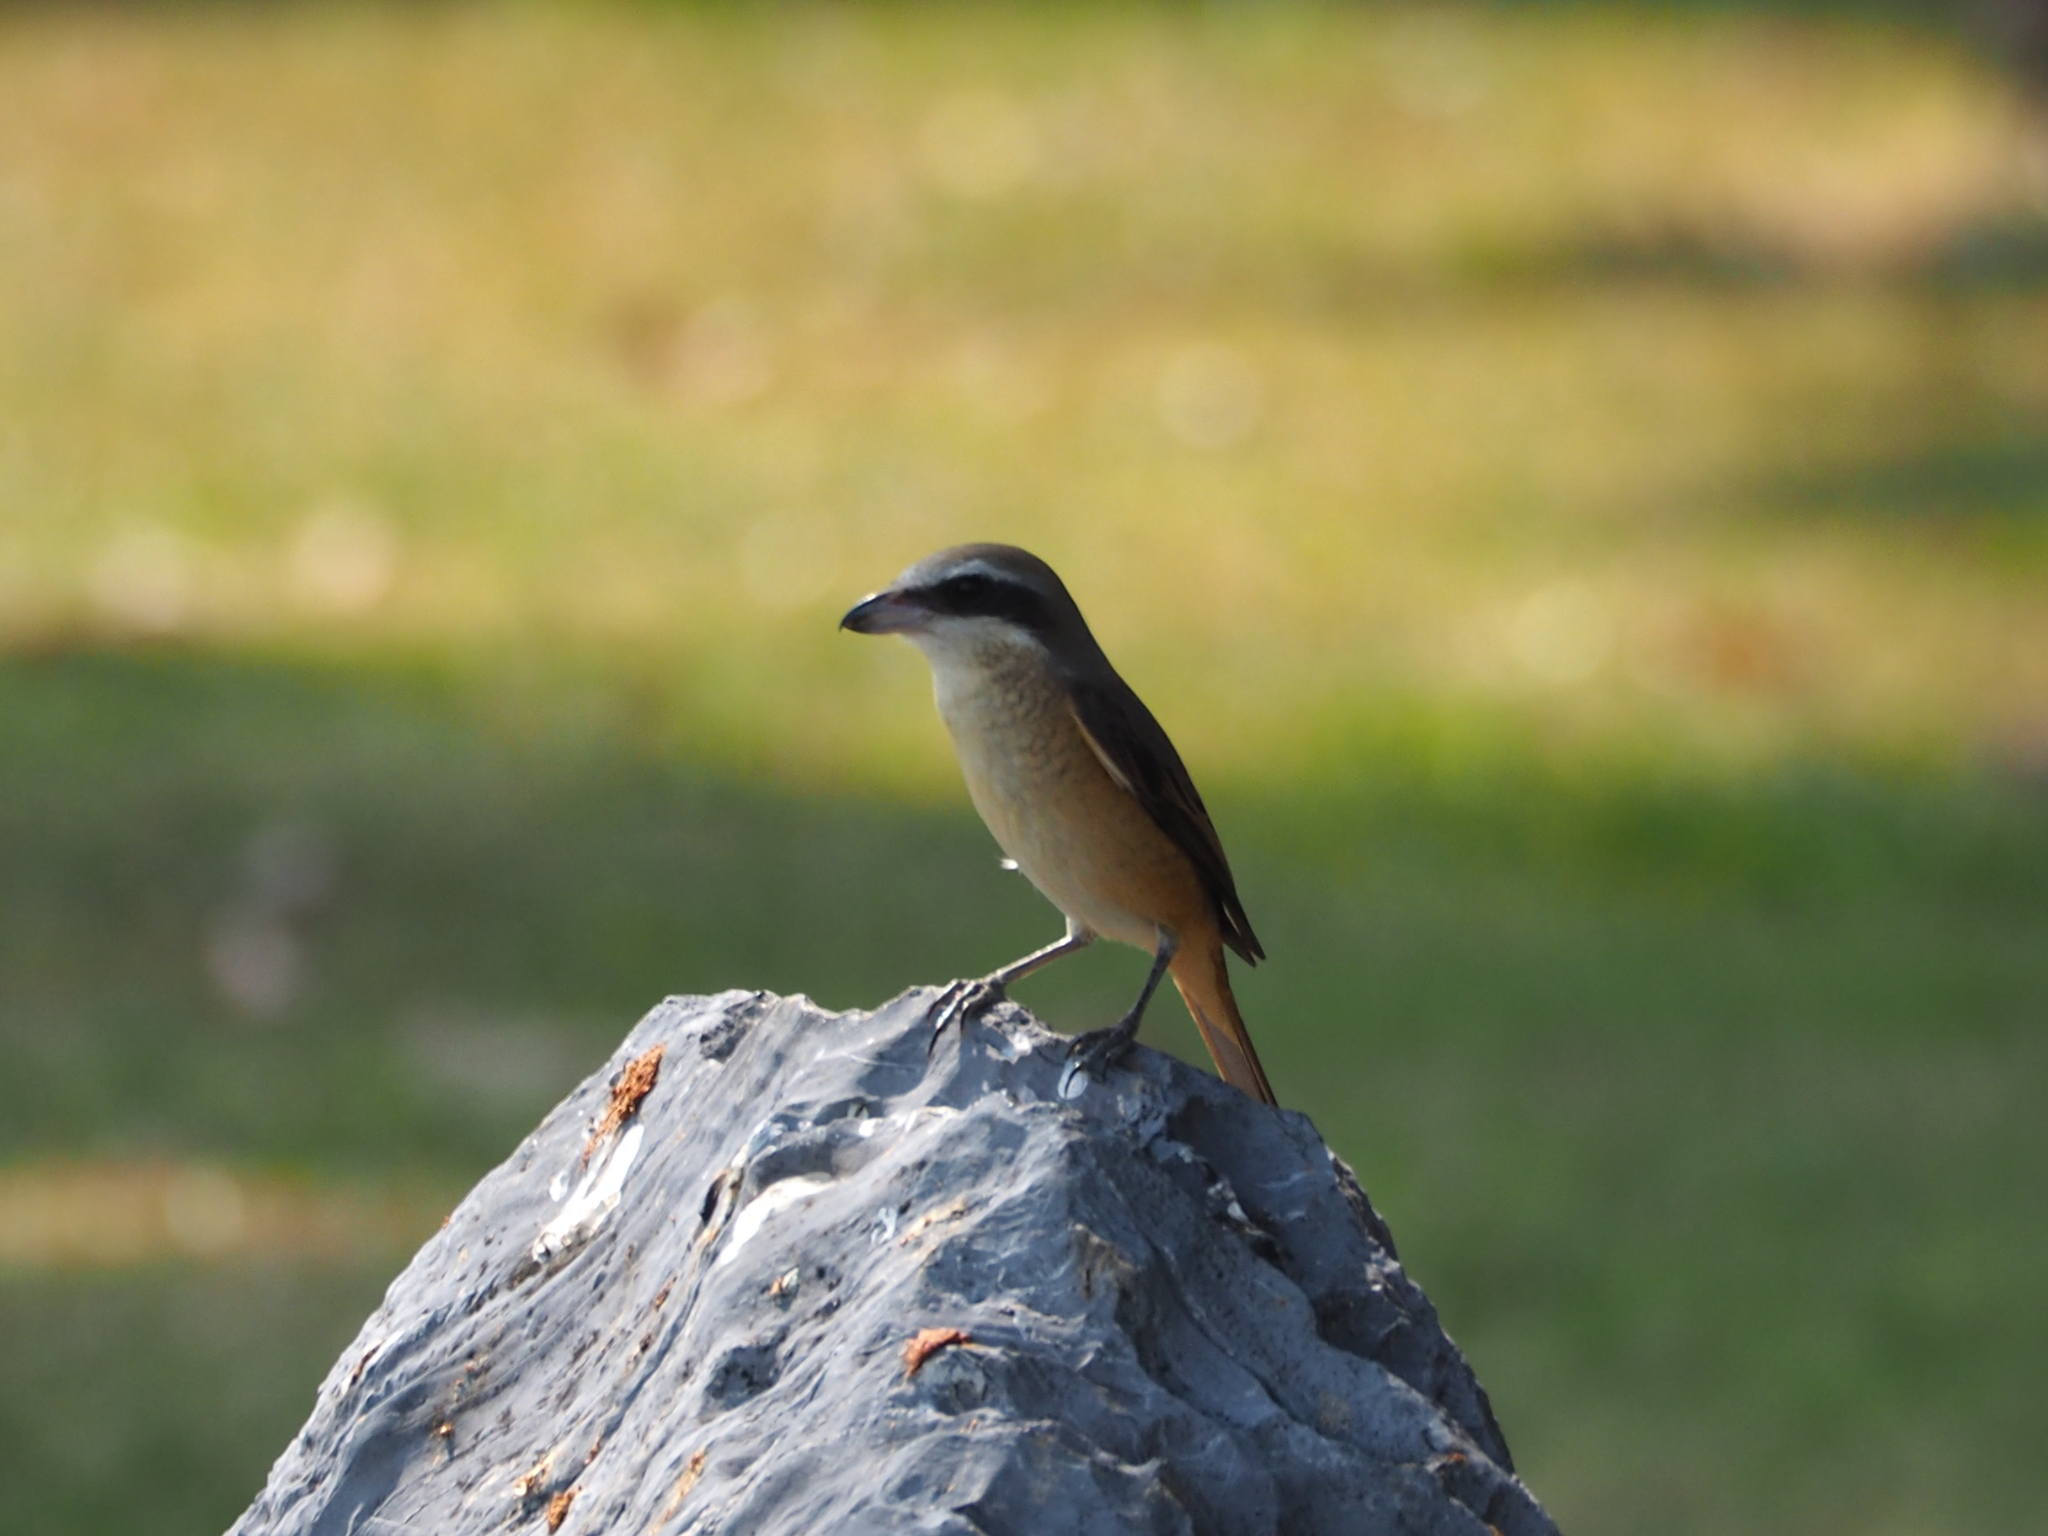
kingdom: Animalia
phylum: Chordata
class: Aves
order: Passeriformes
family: Laniidae
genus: Lanius
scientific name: Lanius cristatus
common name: Brown shrike
